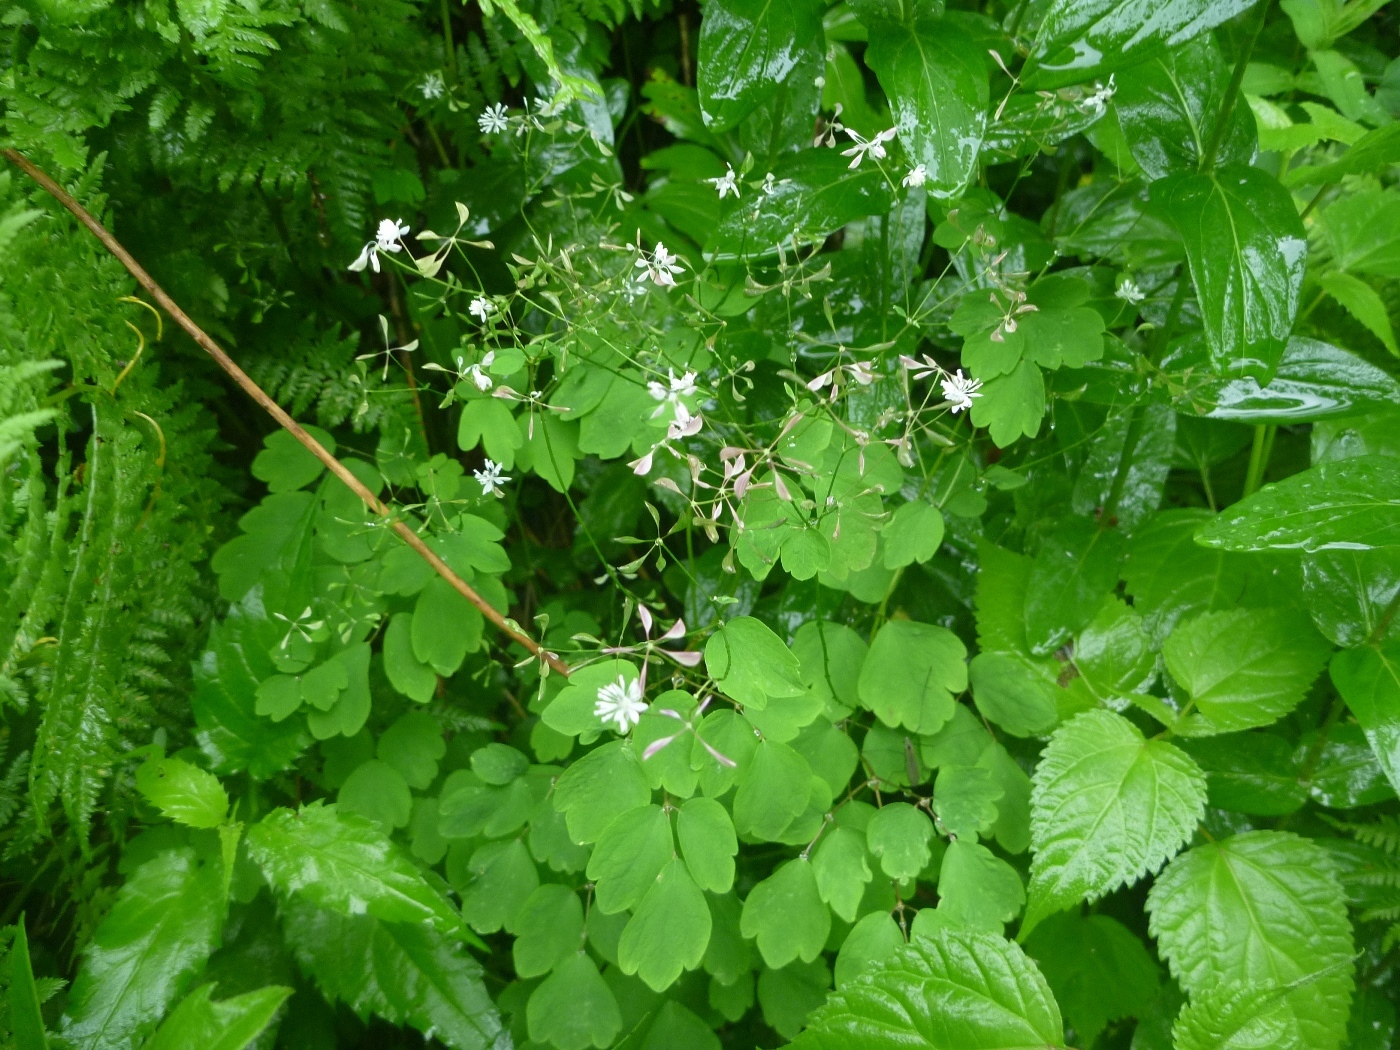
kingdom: Plantae
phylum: Tracheophyta
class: Magnoliopsida
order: Ranunculales
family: Ranunculaceae
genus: Thalictrum
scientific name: Thalictrum clavatum
